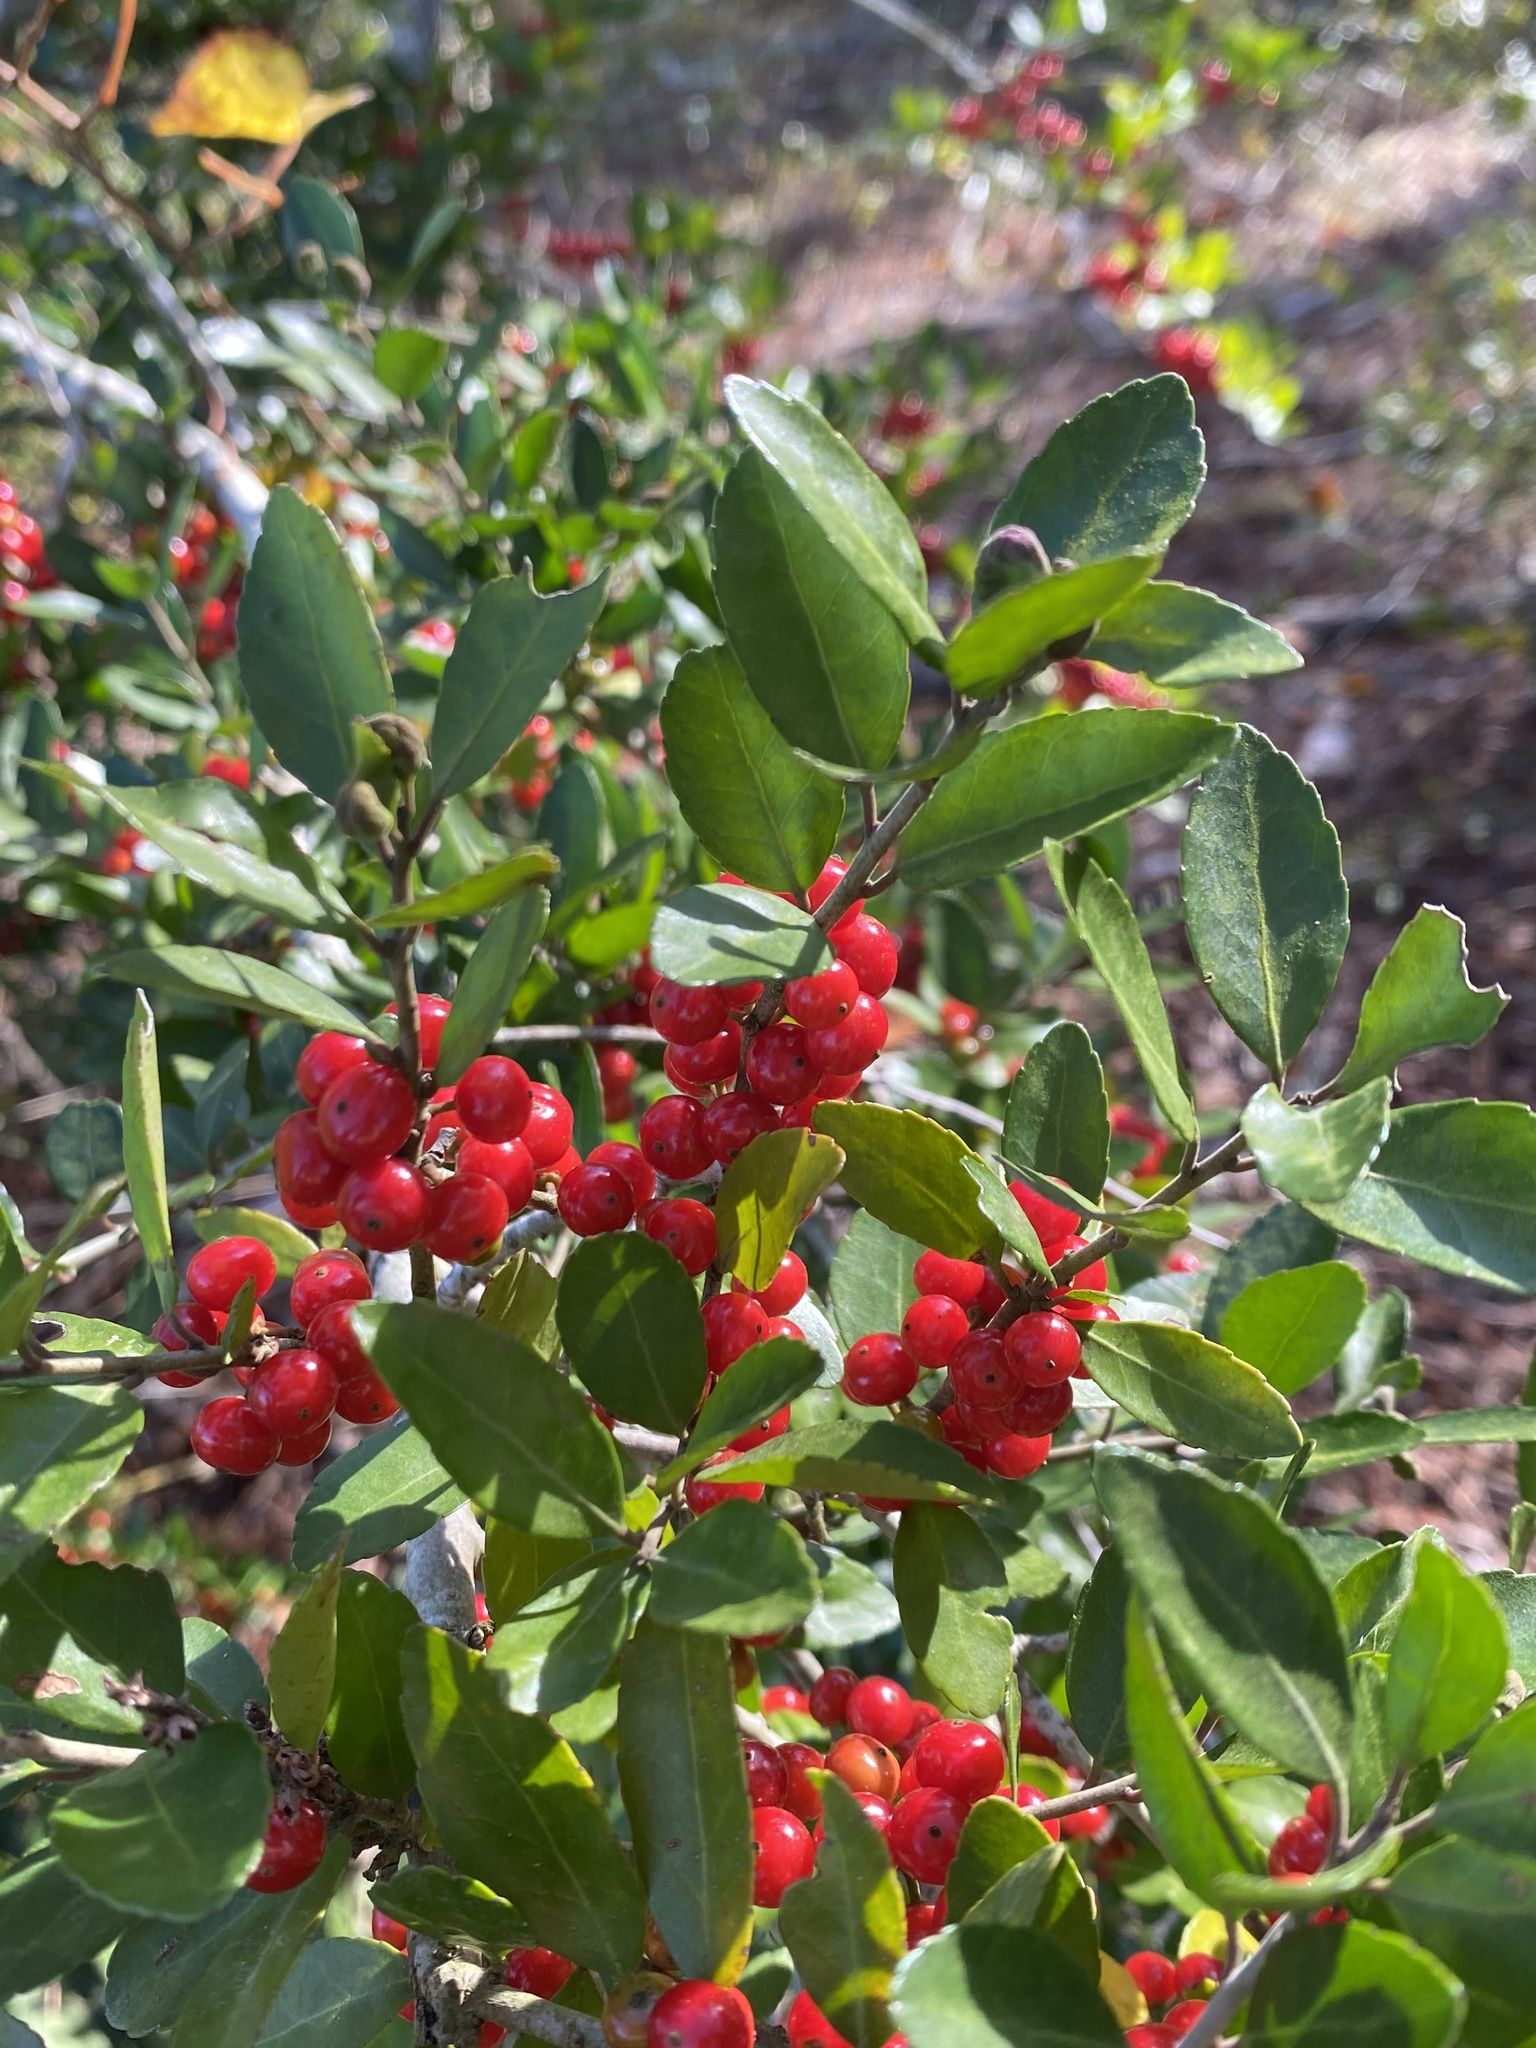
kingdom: Plantae
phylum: Tracheophyta
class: Magnoliopsida
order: Aquifoliales
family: Aquifoliaceae
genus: Ilex
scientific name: Ilex vomitoria
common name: Yaupon holly
